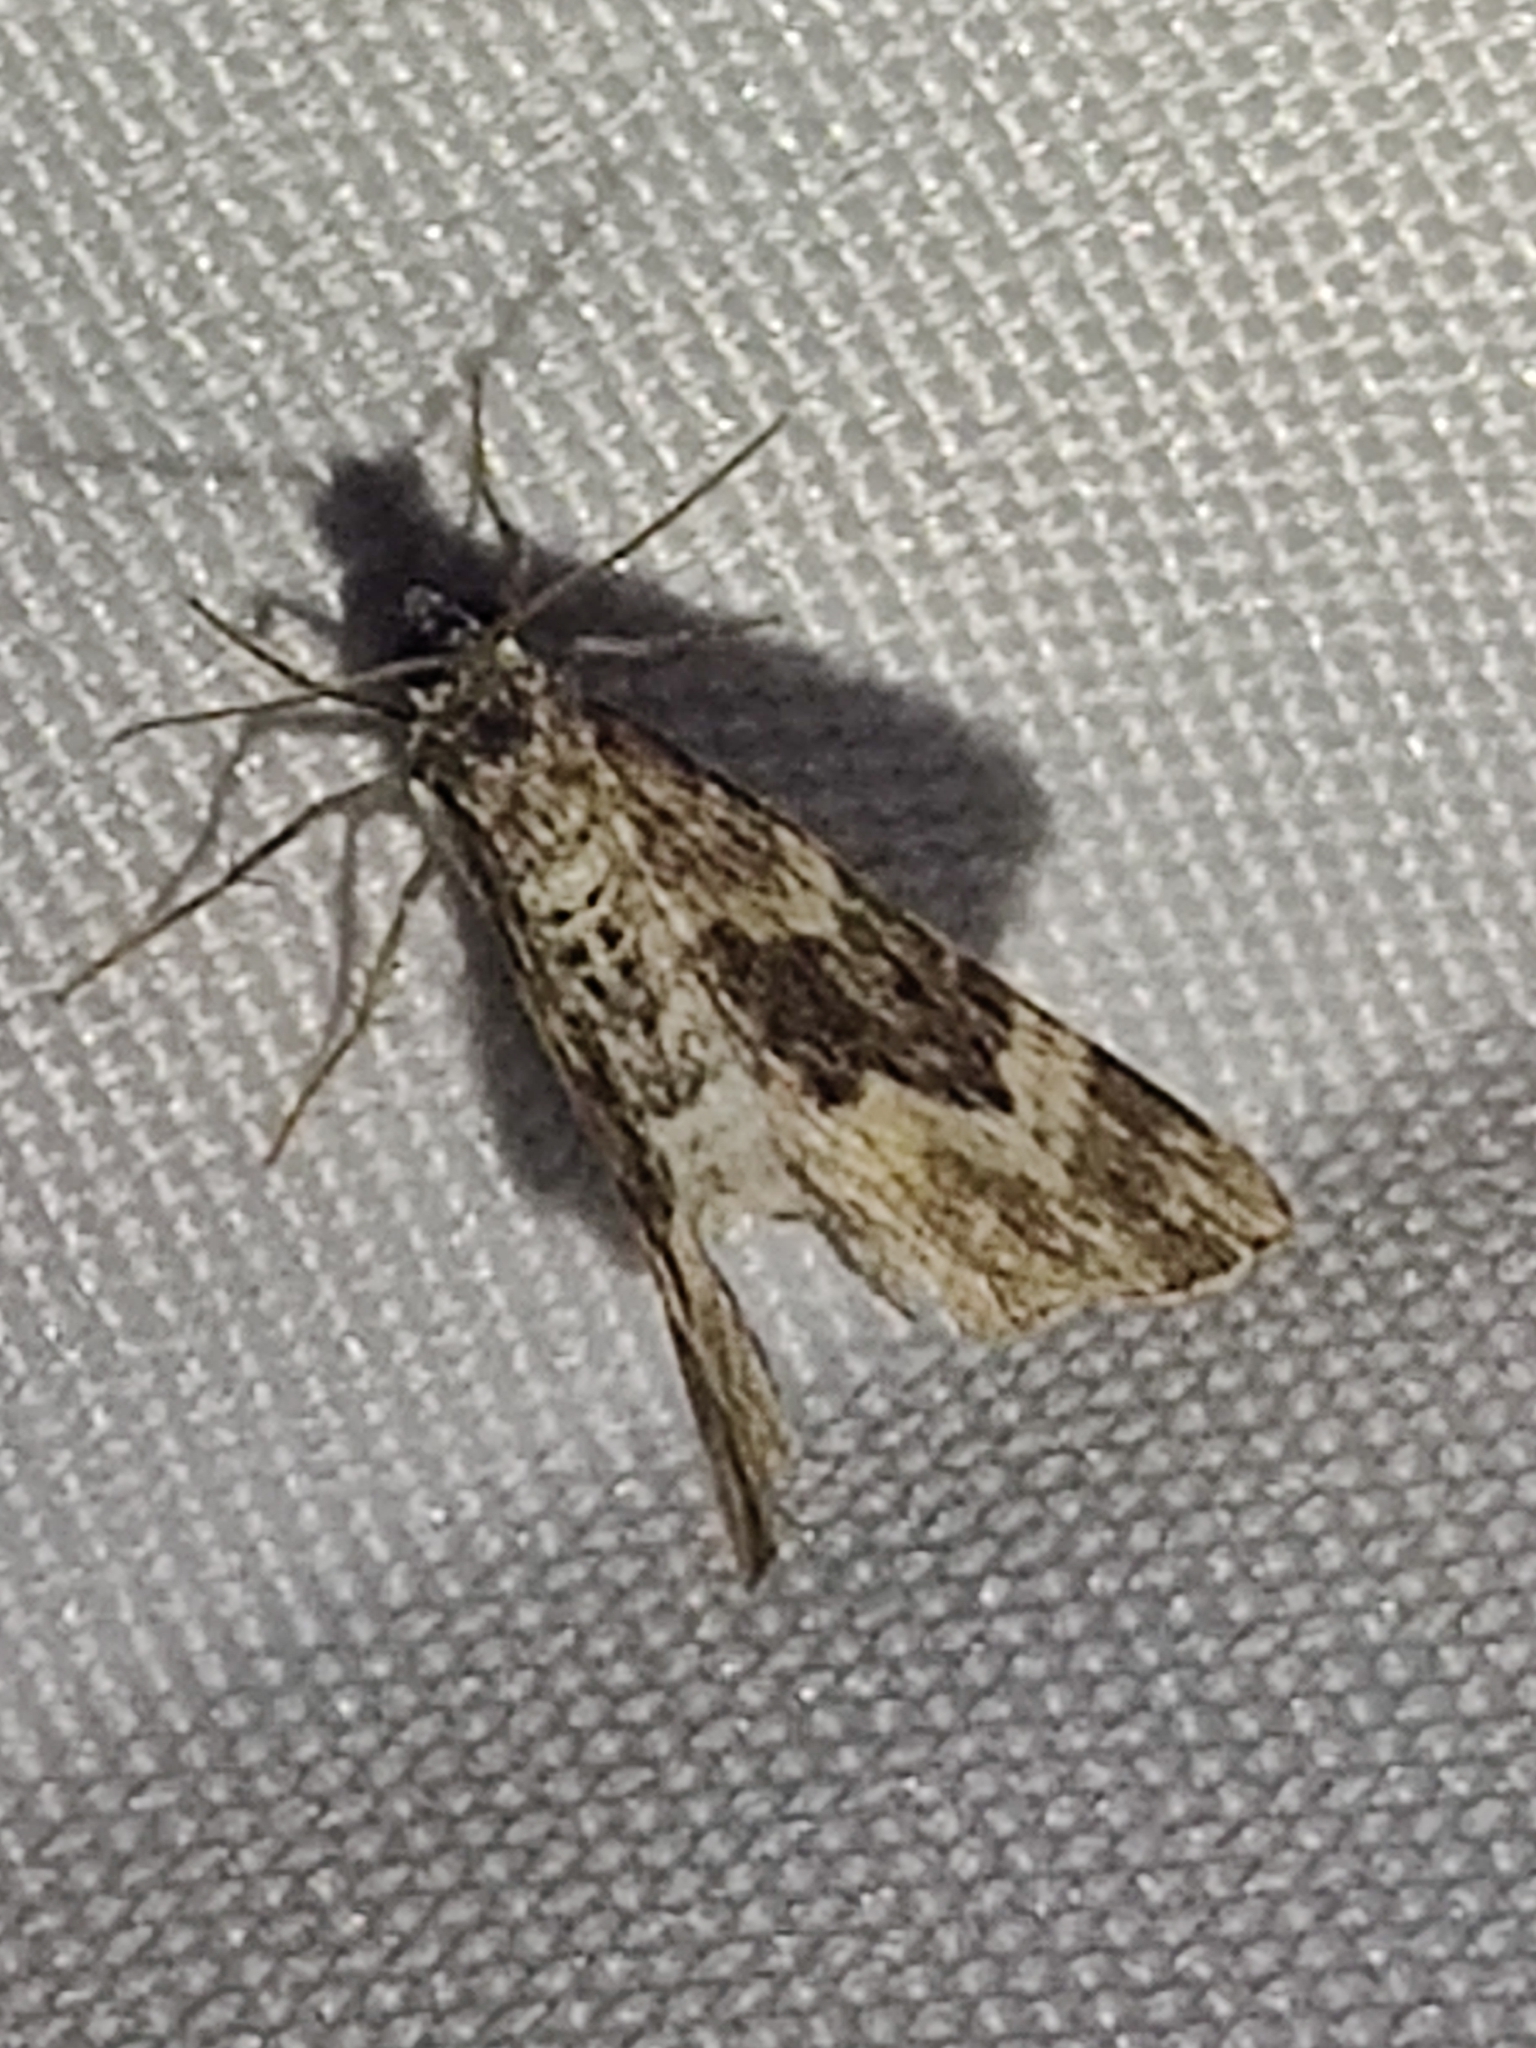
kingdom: Animalia
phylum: Arthropoda
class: Insecta
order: Lepidoptera
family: Geometridae
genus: Epirrhoe
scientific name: Epirrhoe alternata
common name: Common carpet
